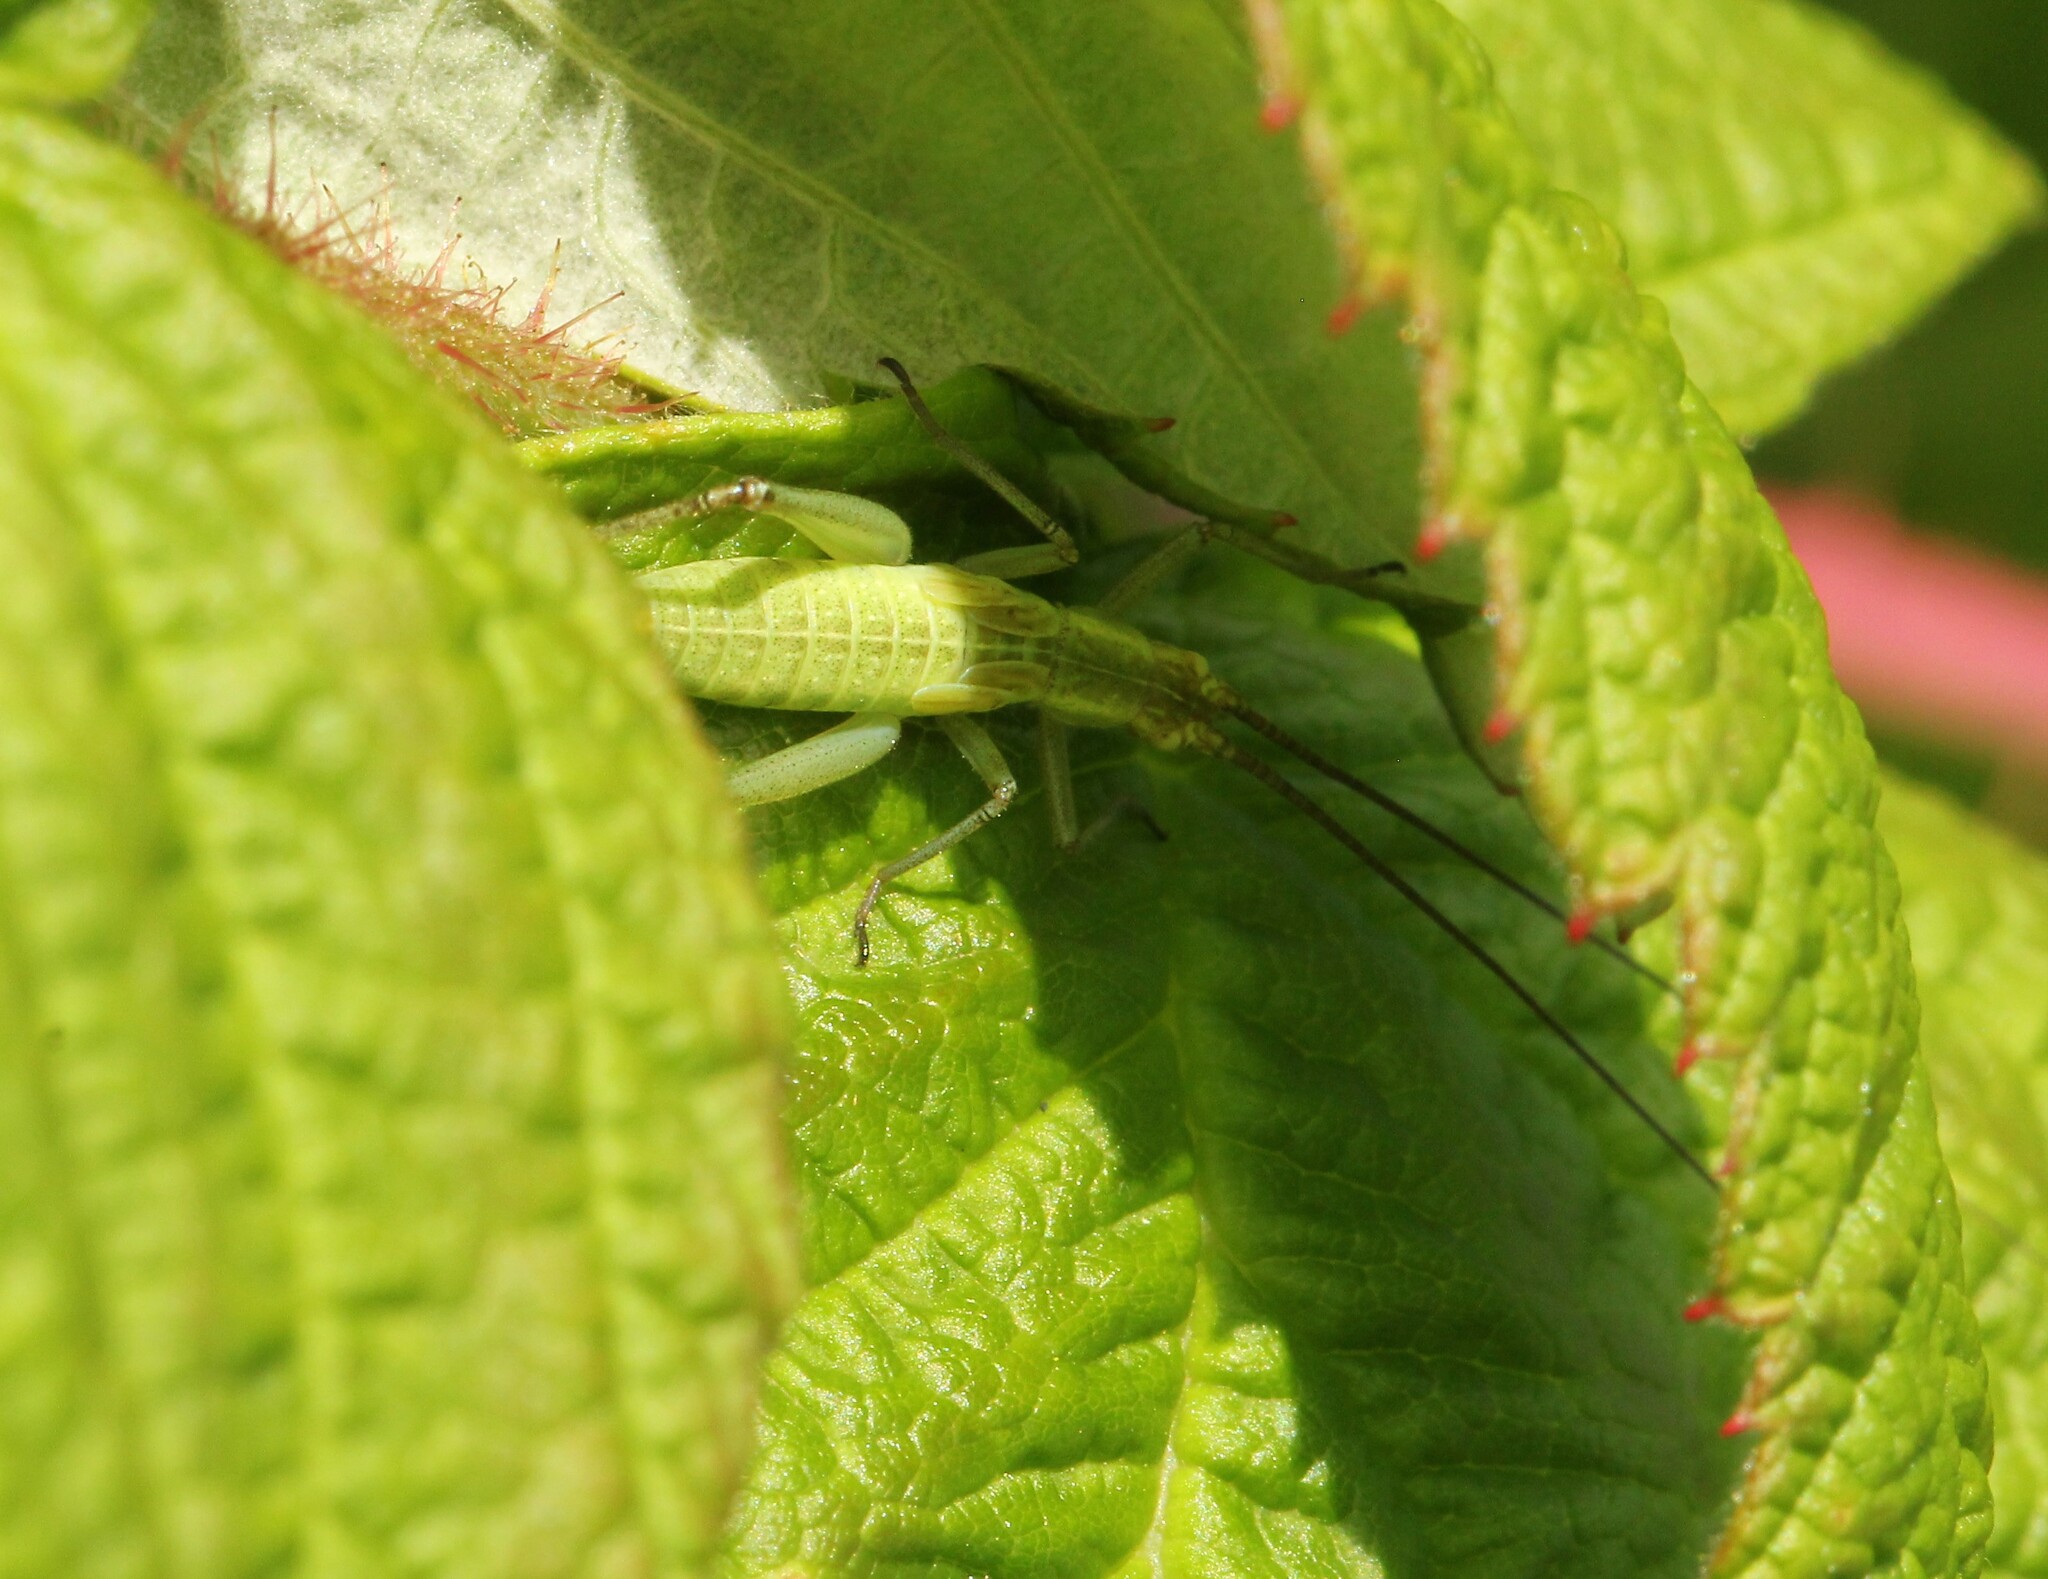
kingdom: Animalia
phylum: Arthropoda
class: Insecta
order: Orthoptera
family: Gryllidae
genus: Oecanthus
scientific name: Oecanthus nigricornis
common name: Black-horned tree cricket
